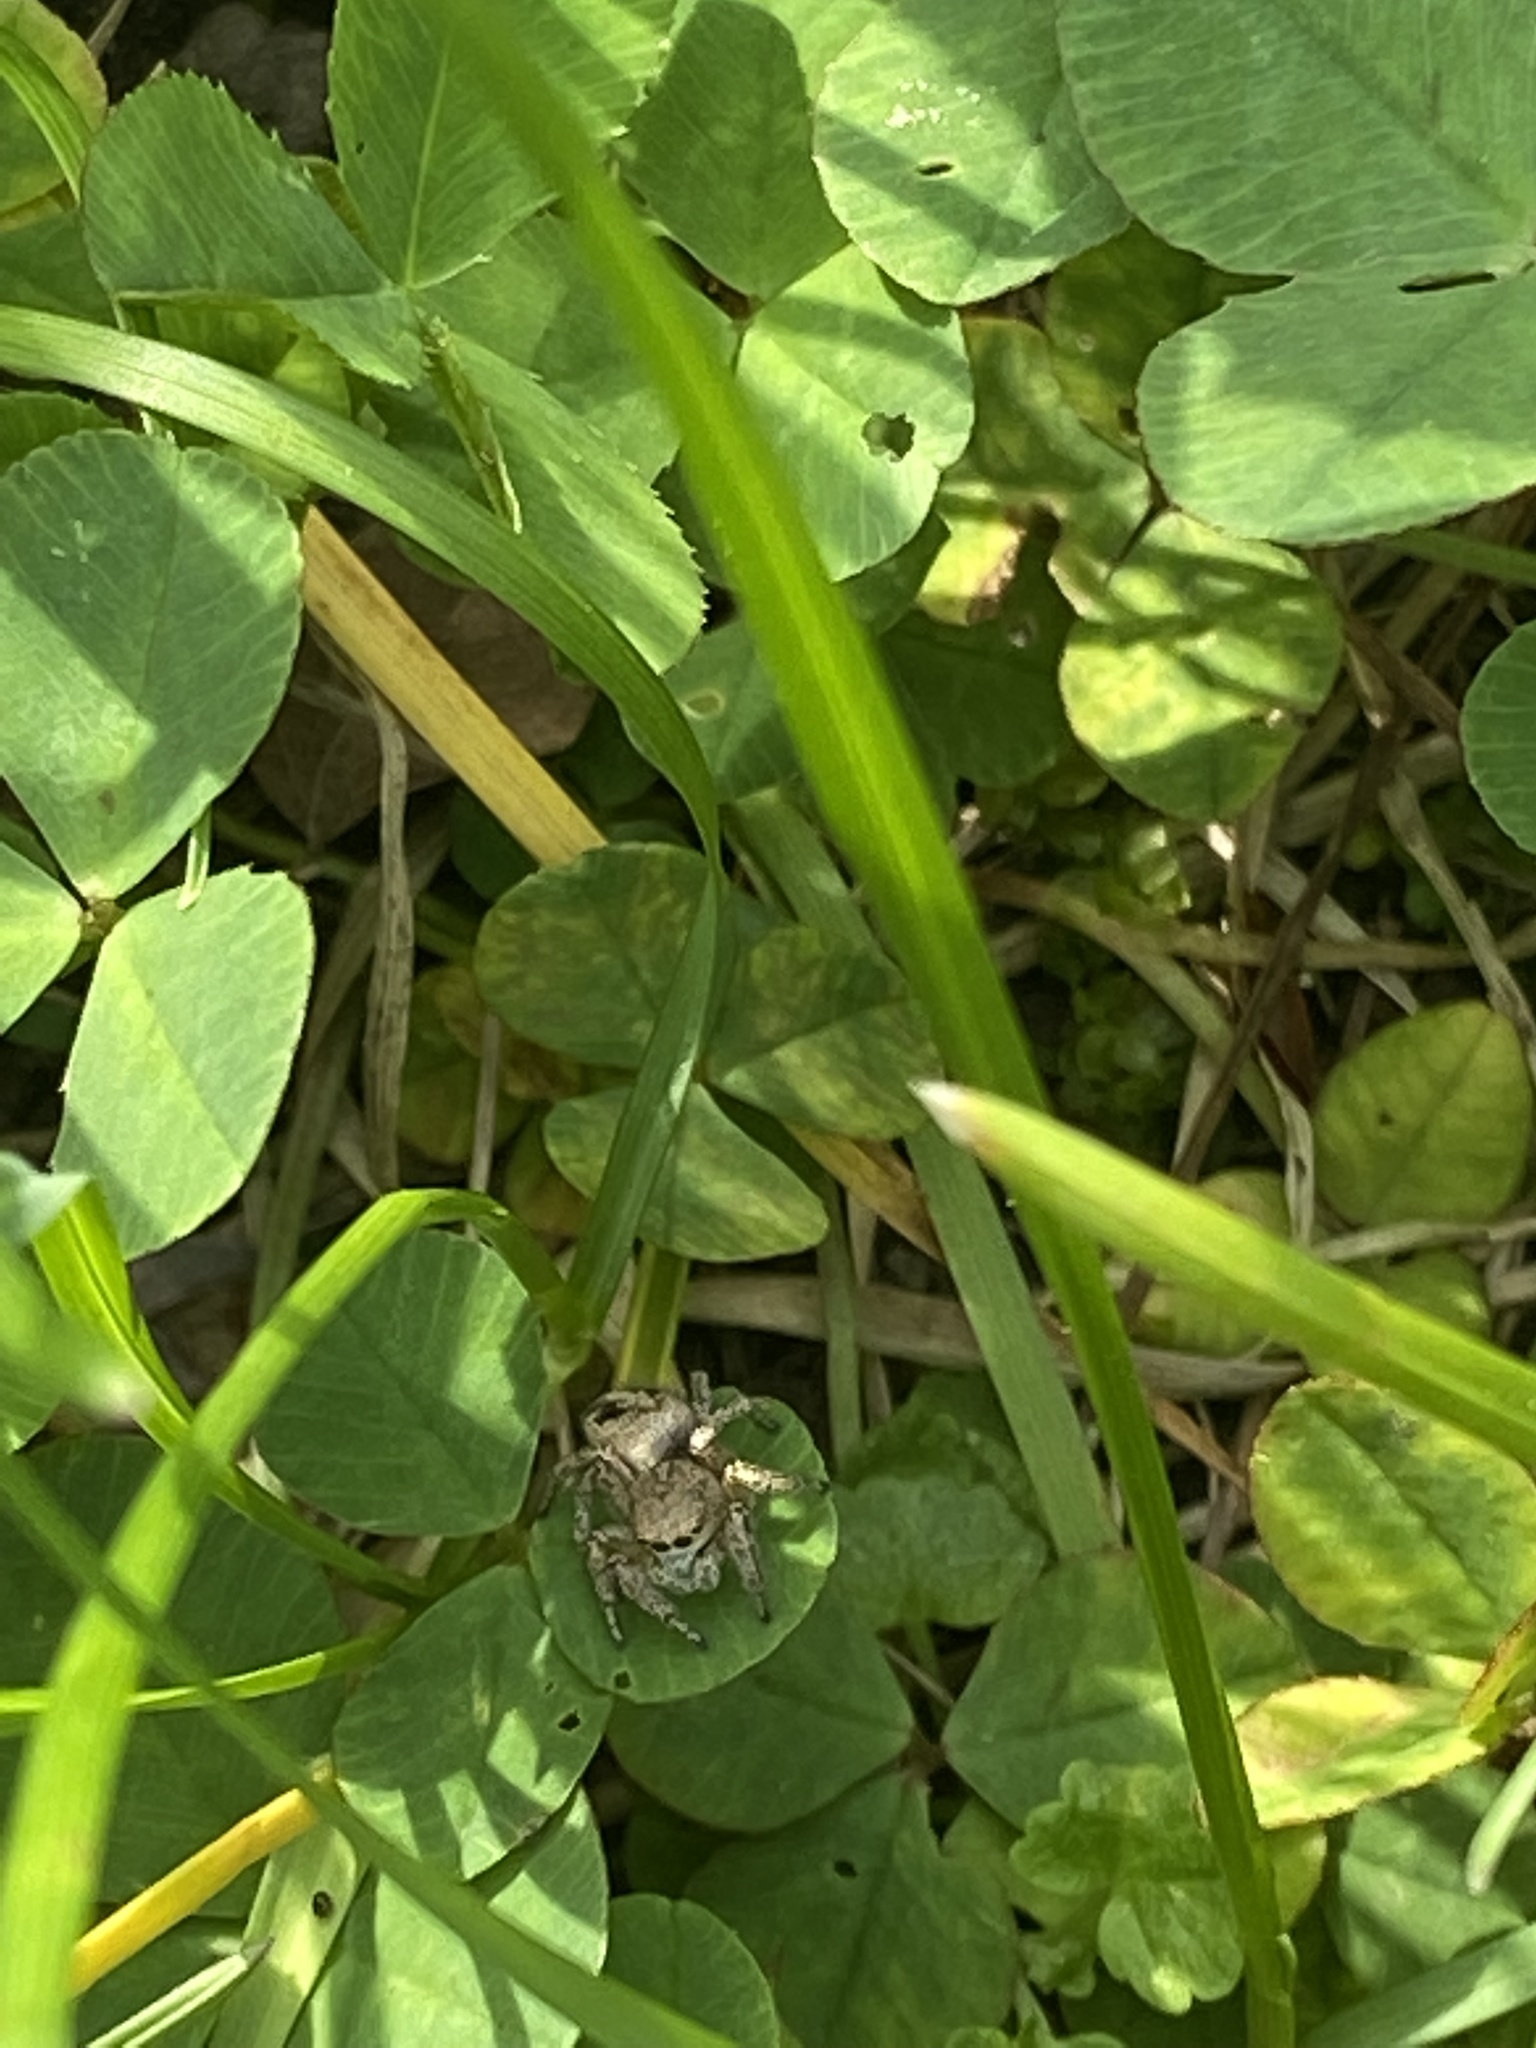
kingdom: Animalia
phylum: Arthropoda
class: Arachnida
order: Araneae
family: Salticidae
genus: Habronattus
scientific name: Habronattus decorus
